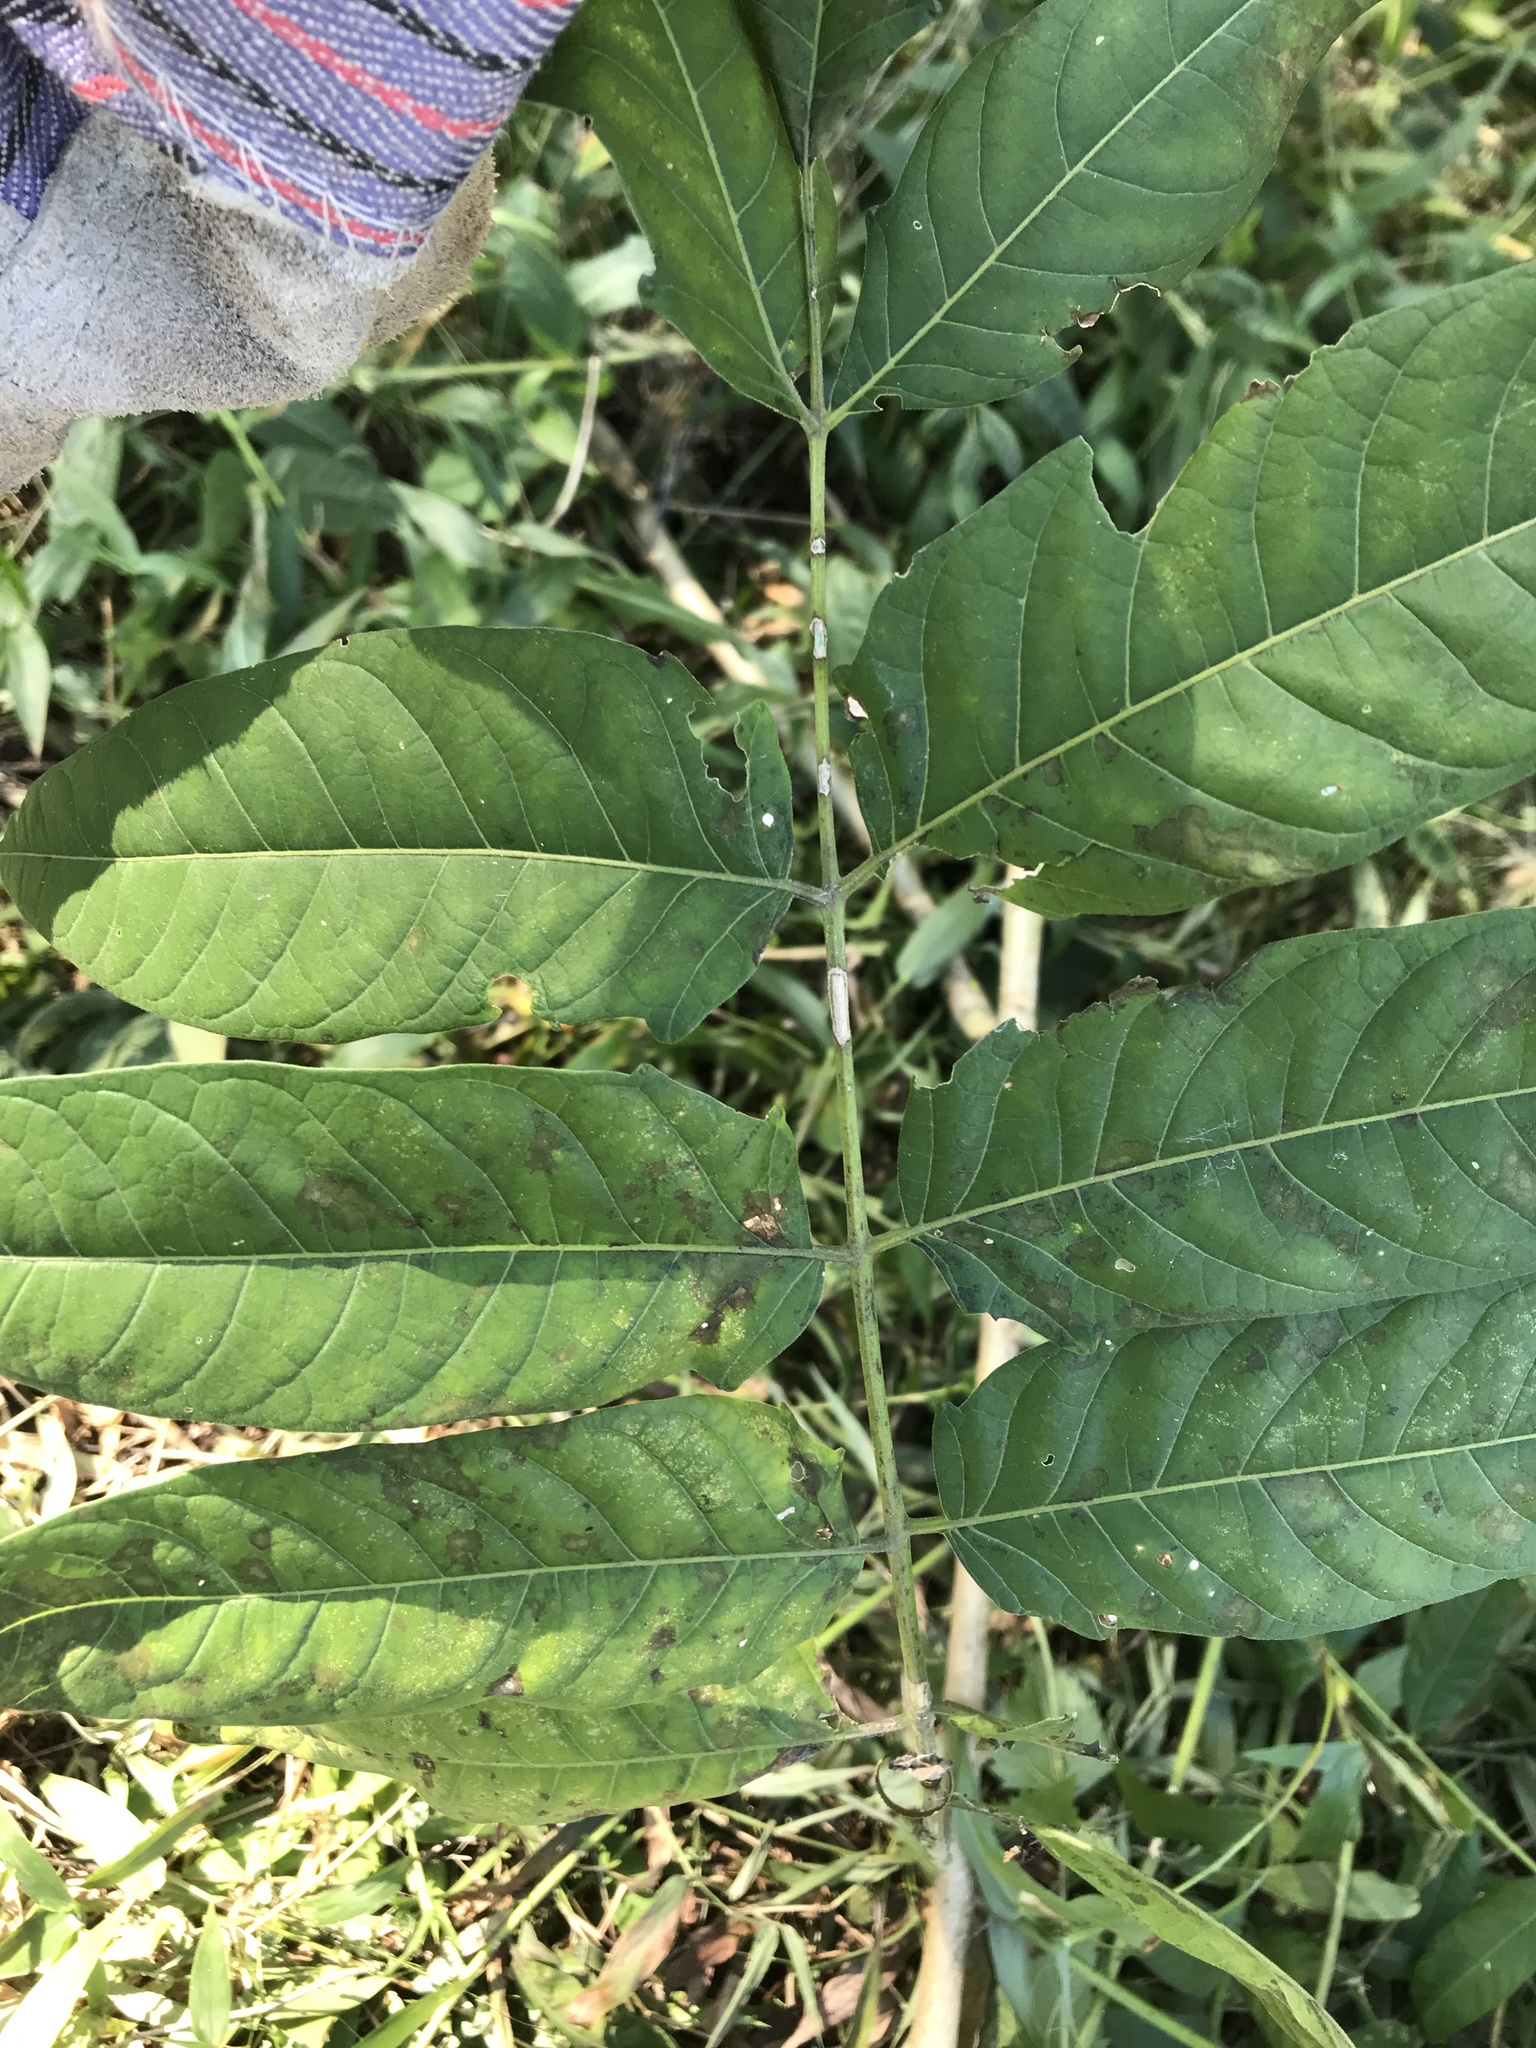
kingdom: Plantae
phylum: Tracheophyta
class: Magnoliopsida
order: Sapindales
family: Simaroubaceae
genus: Ailanthus
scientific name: Ailanthus altissima
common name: Tree-of-heaven
